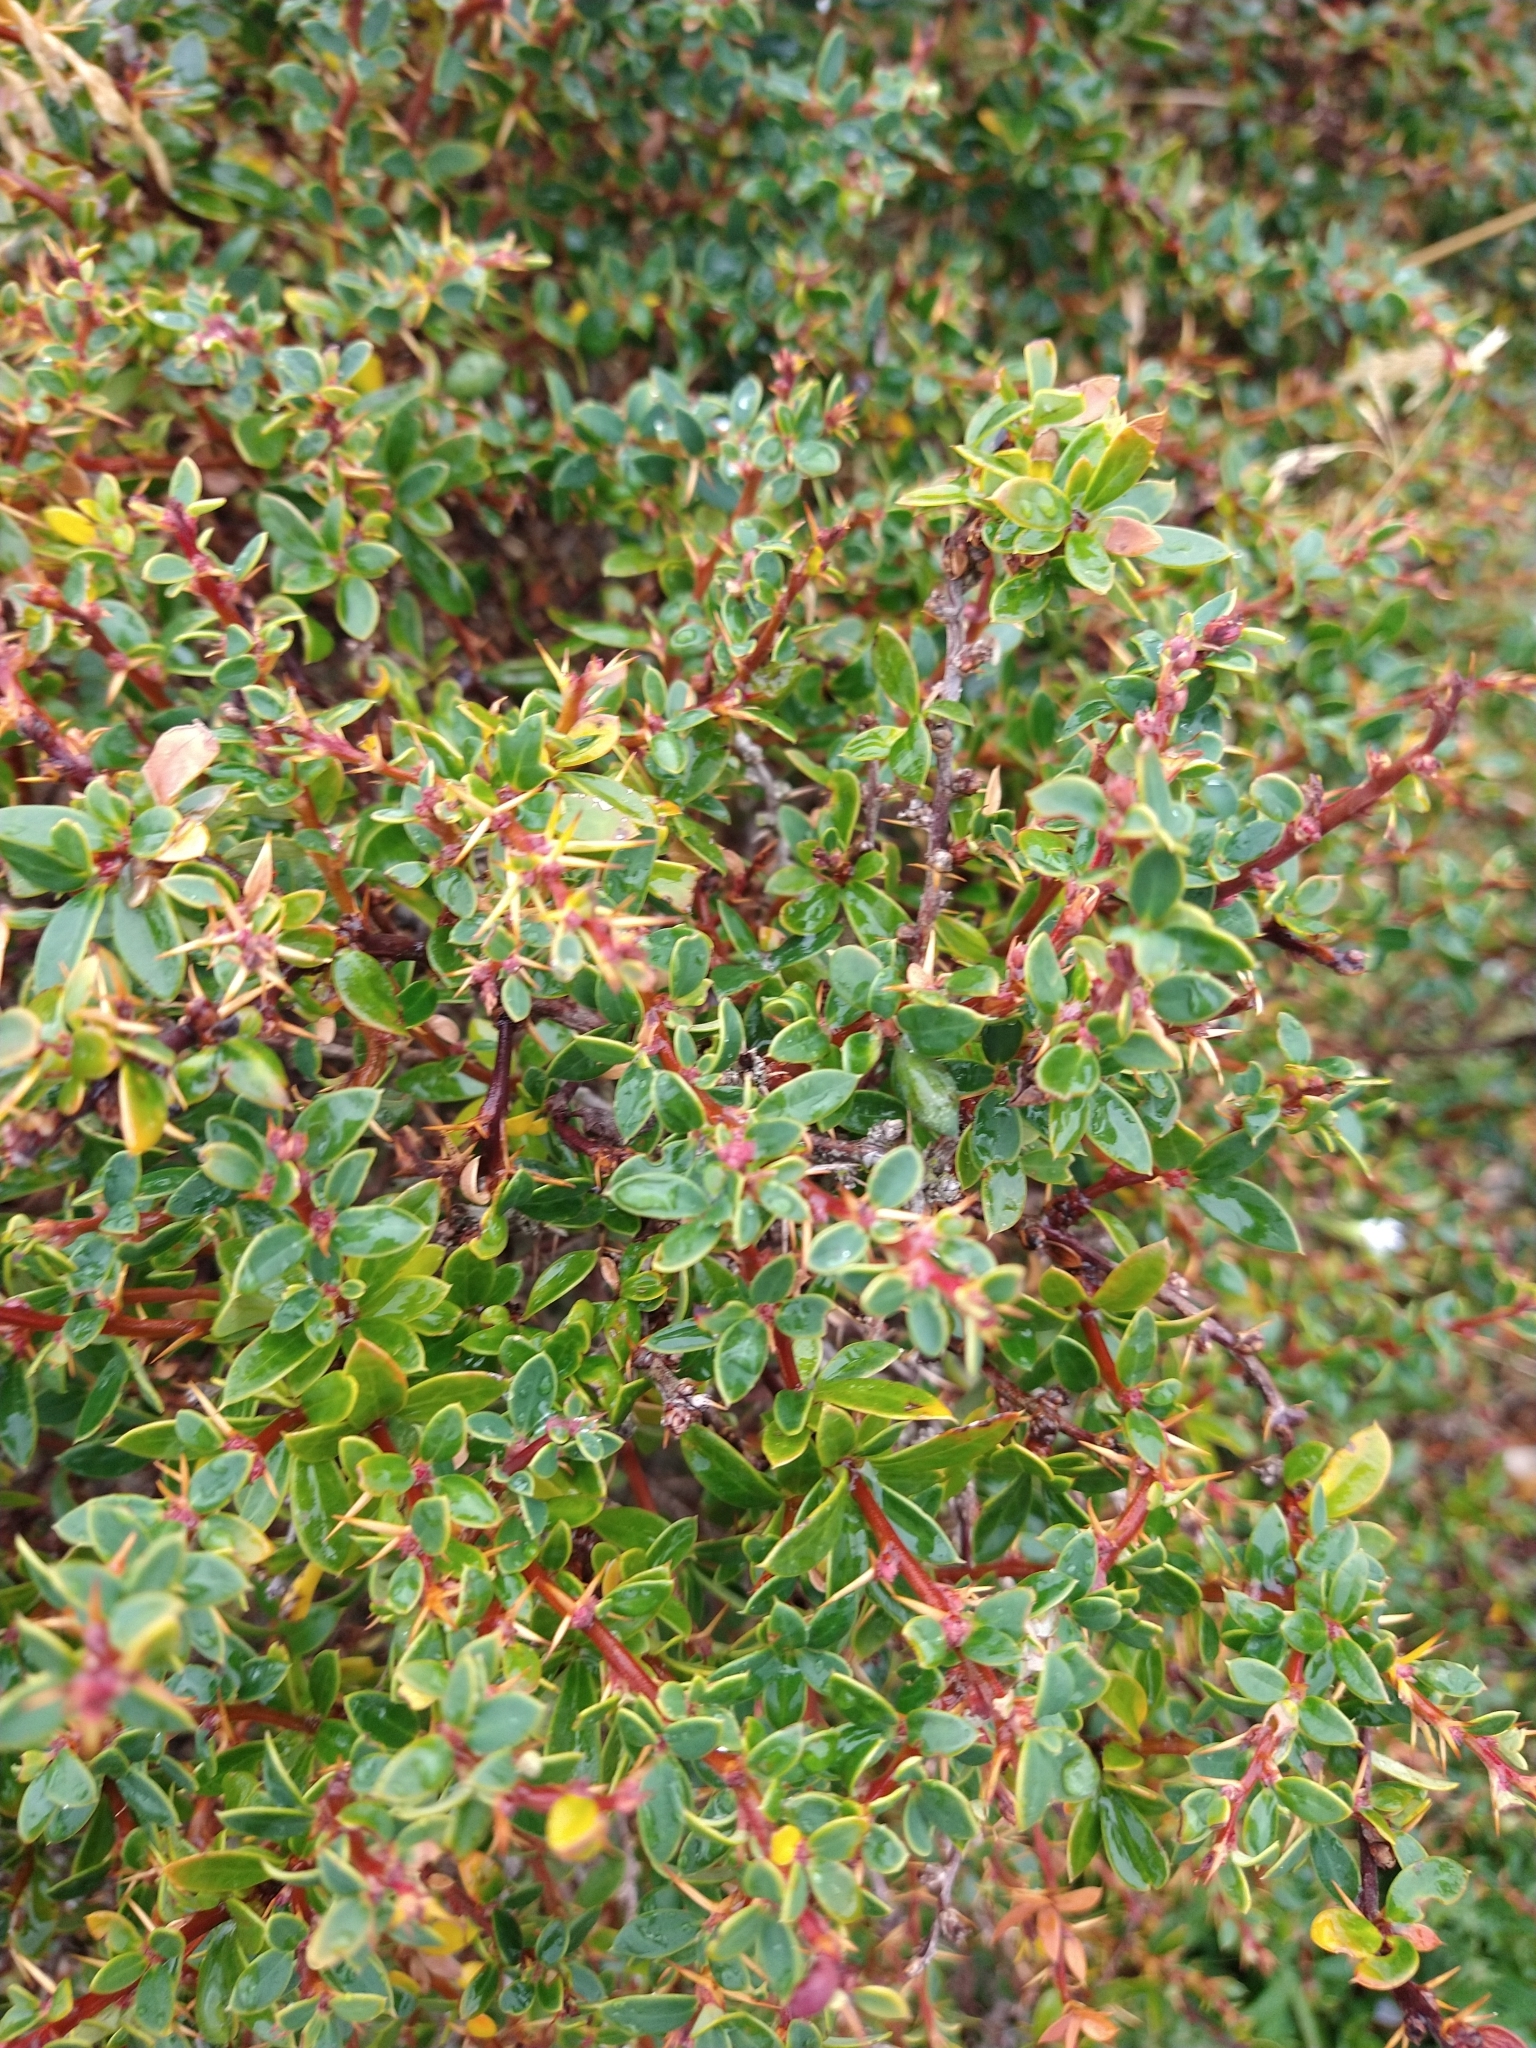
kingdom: Plantae
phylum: Tracheophyta
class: Magnoliopsida
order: Ranunculales
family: Berberidaceae
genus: Berberis
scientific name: Berberis microphylla
